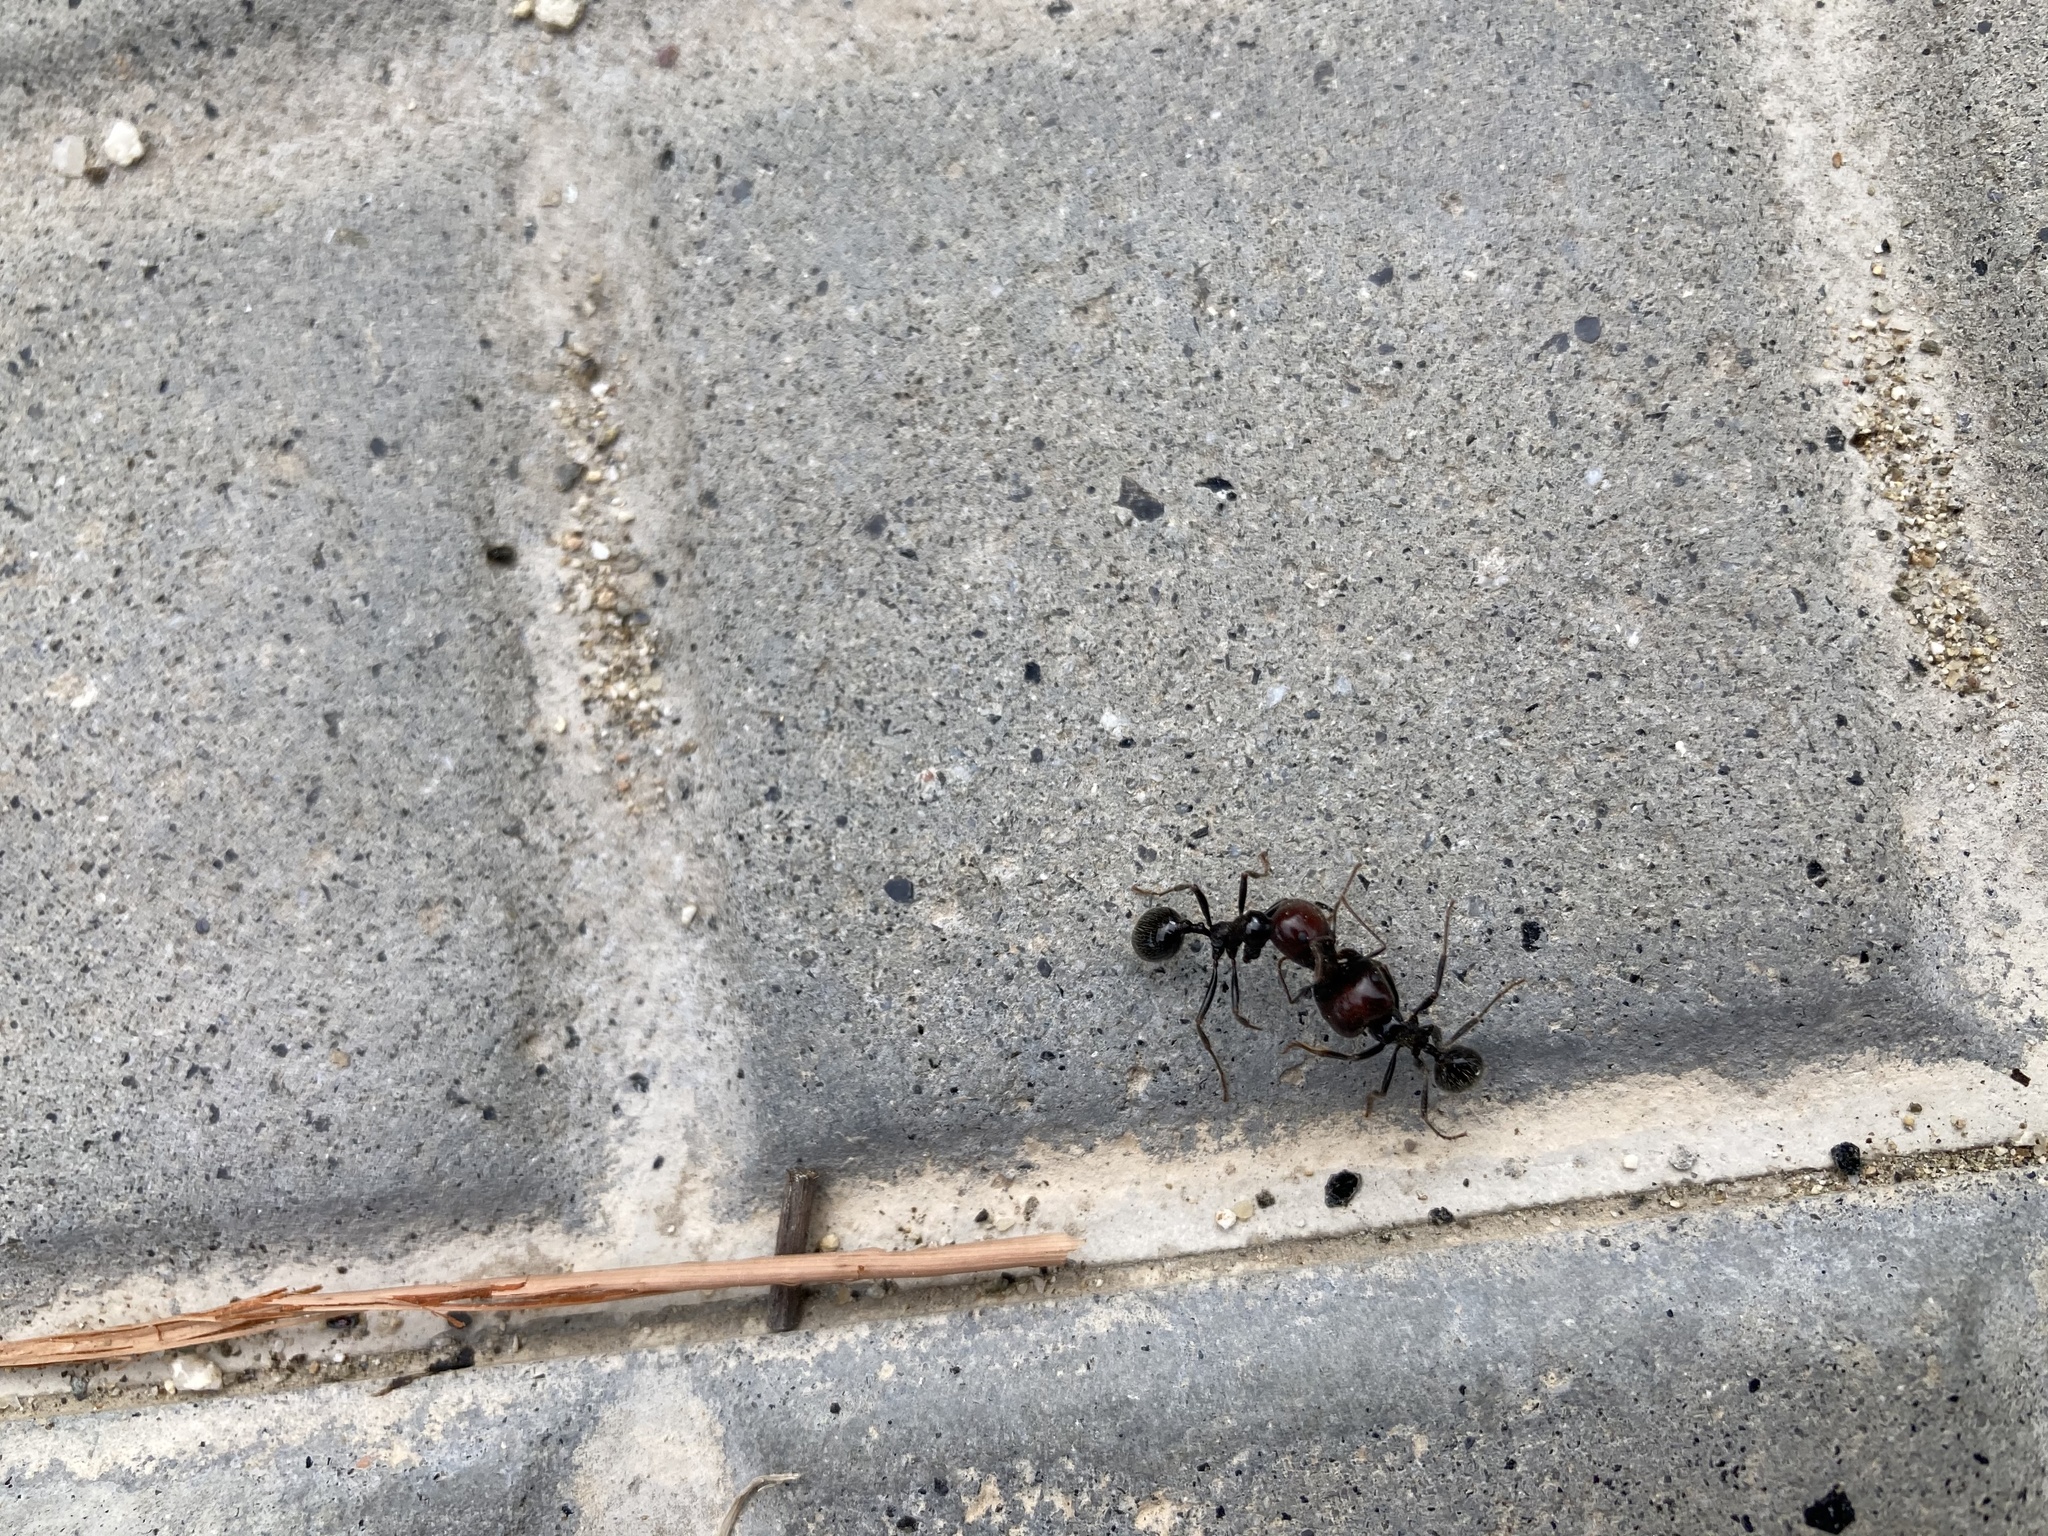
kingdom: Animalia
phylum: Arthropoda
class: Insecta
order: Hymenoptera
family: Formicidae
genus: Messor
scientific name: Messor barbarus
